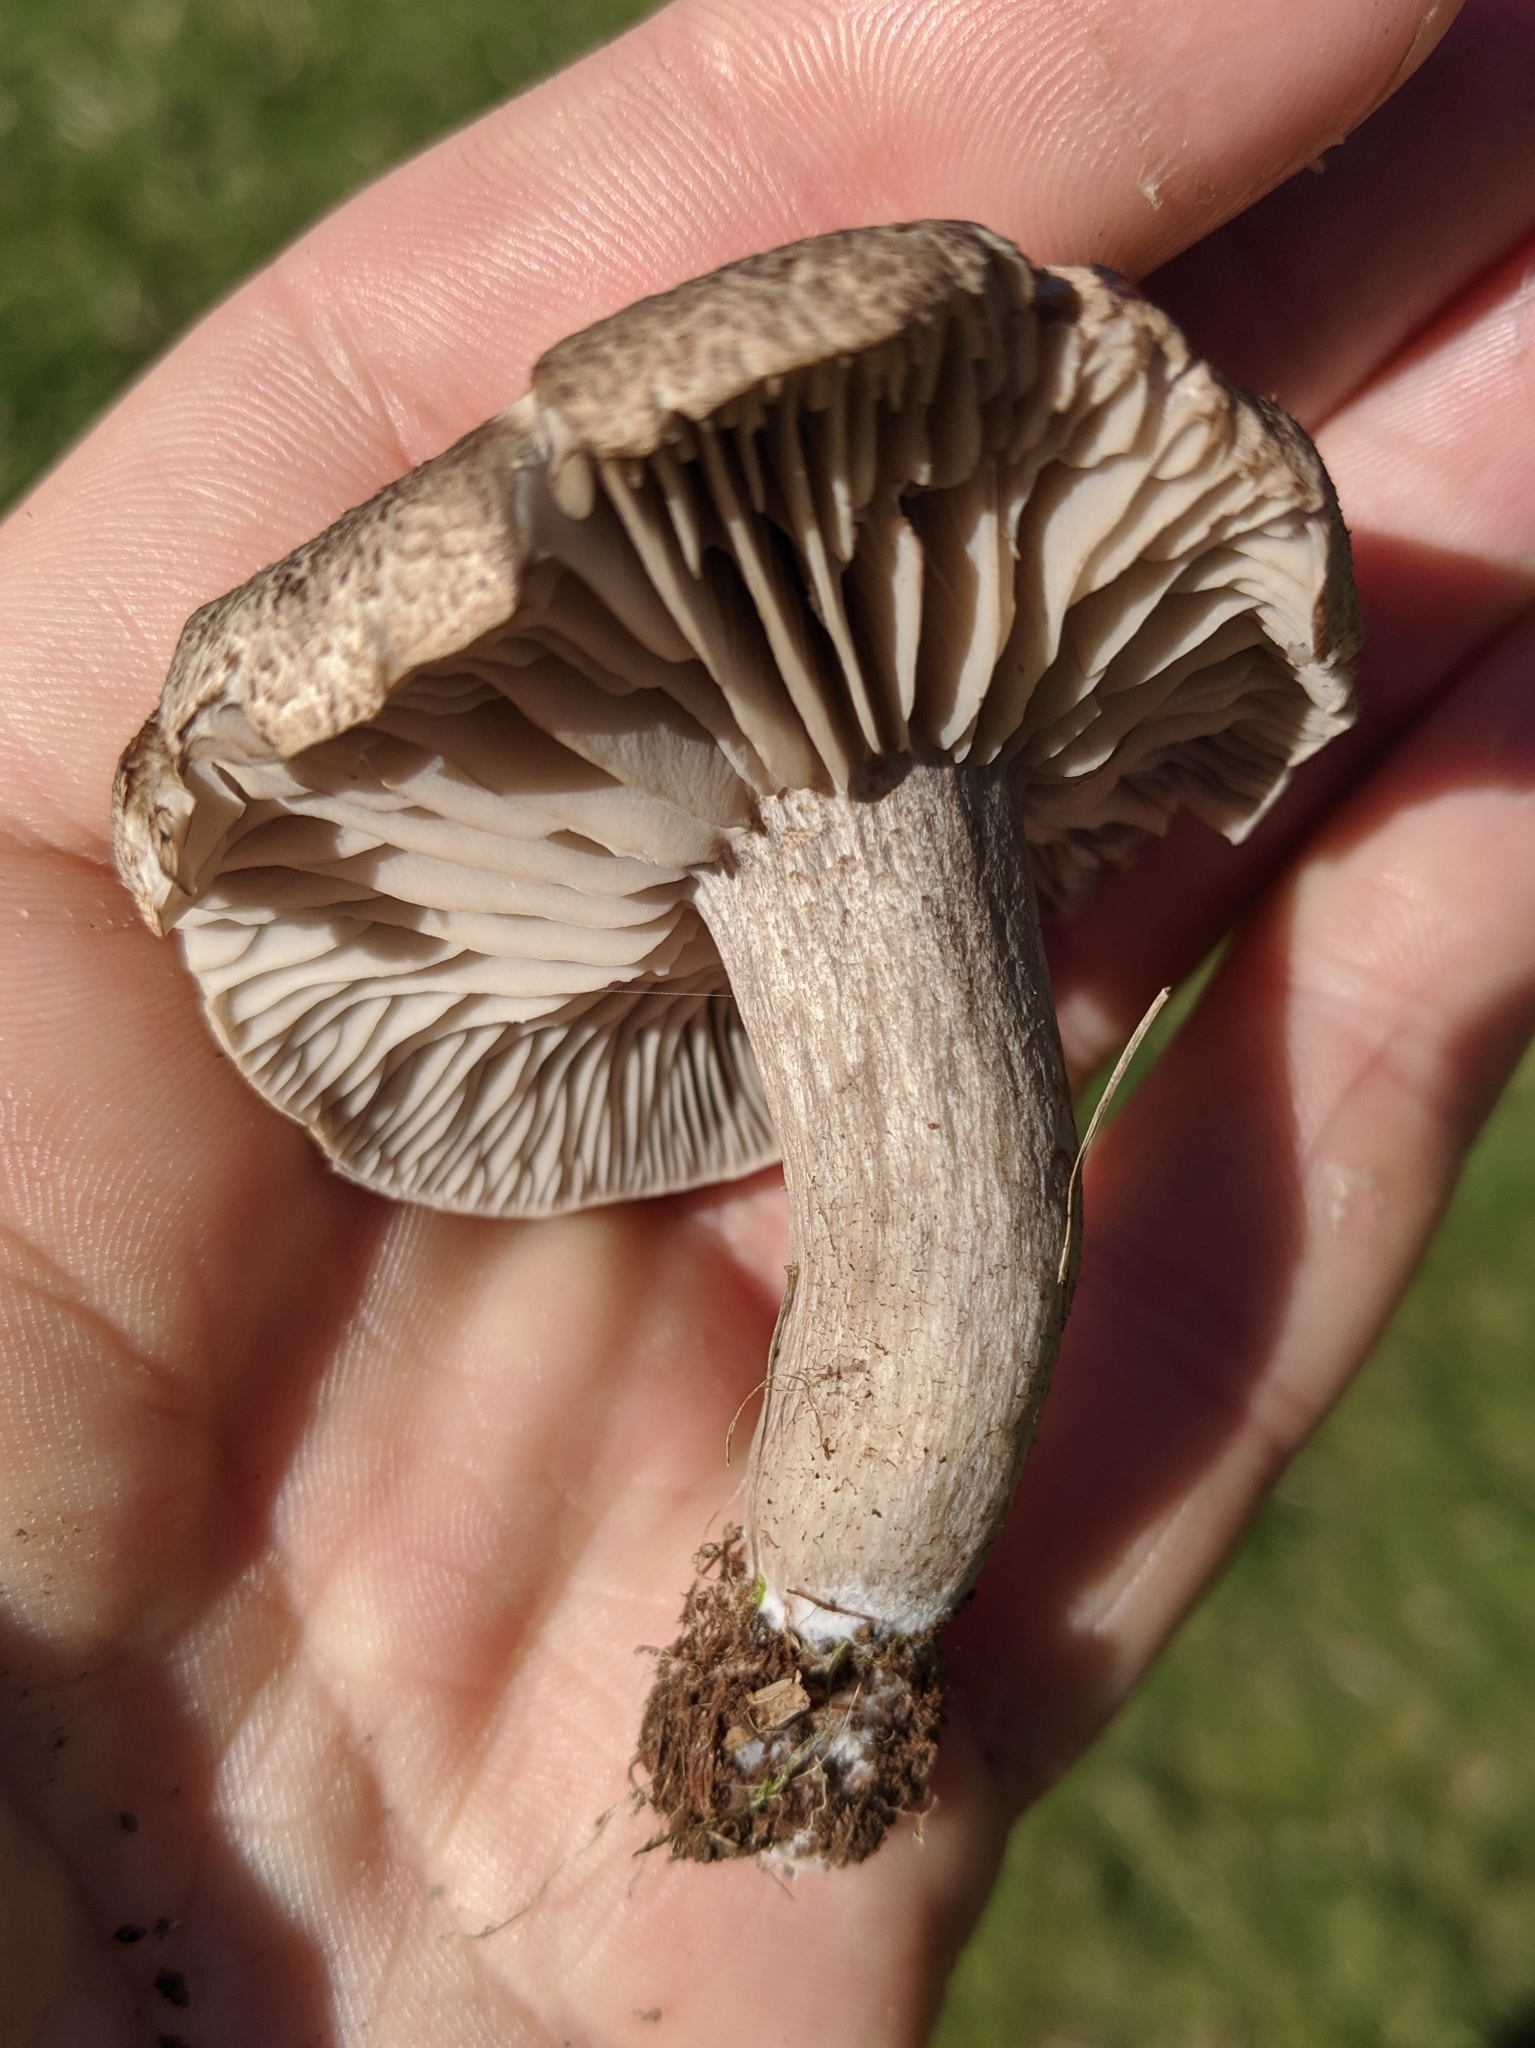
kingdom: Fungi
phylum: Basidiomycota
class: Agaricomycetes
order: Agaricales
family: Tricholomataceae
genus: Tricholoma
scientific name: Tricholoma terreum
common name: Grey knight
